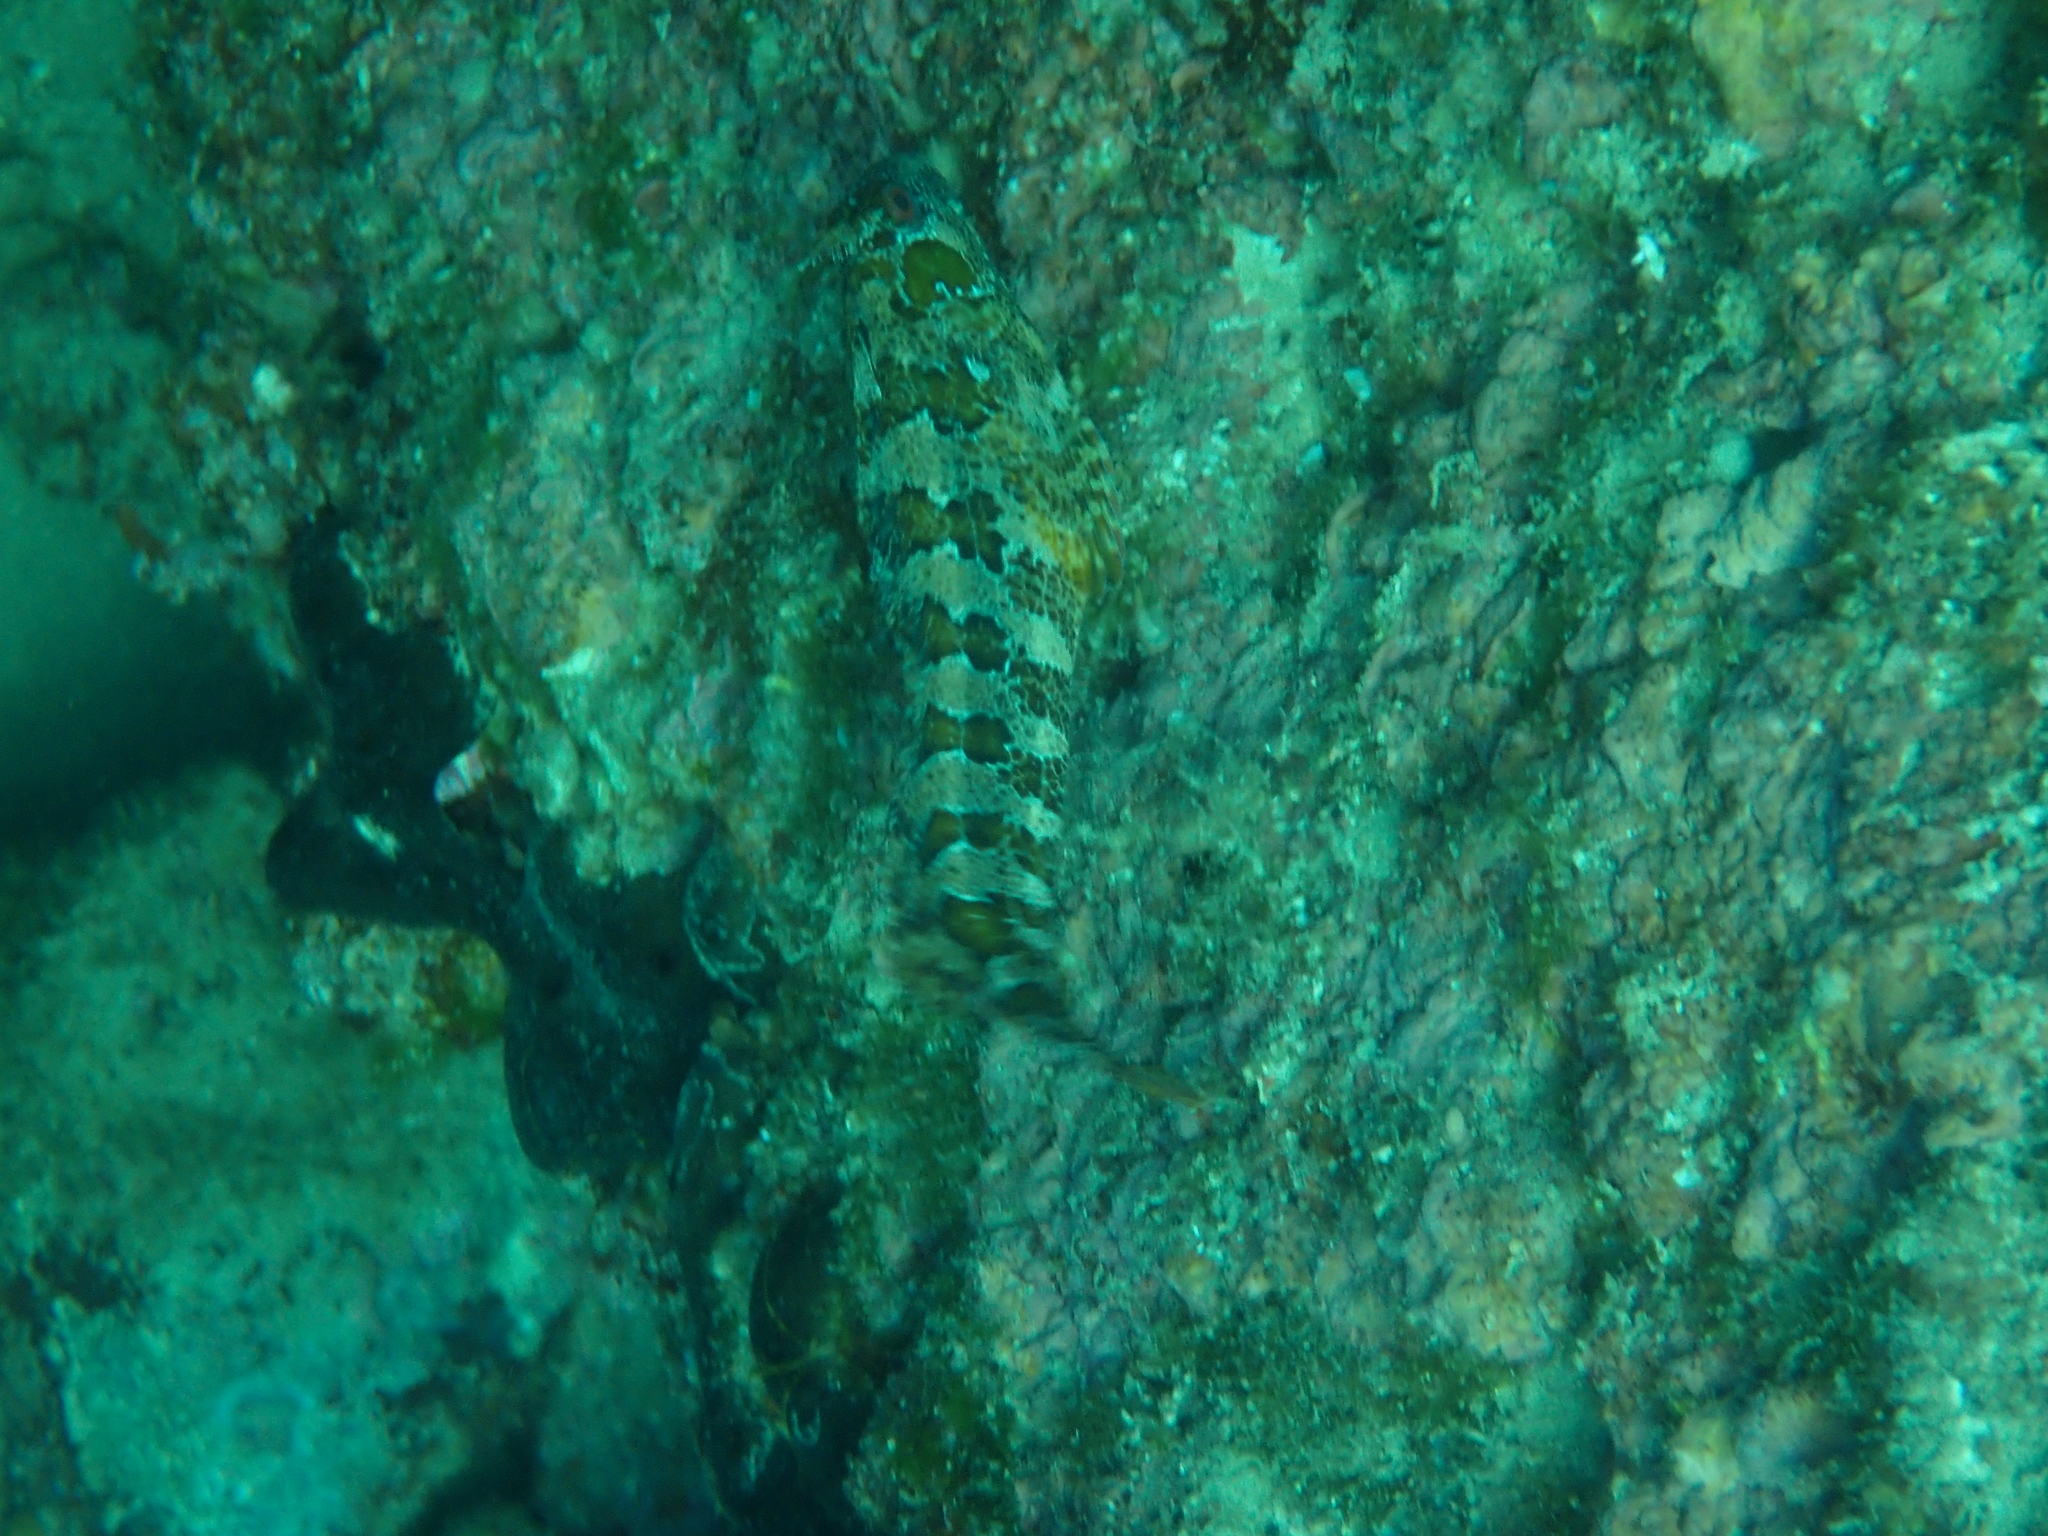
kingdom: Animalia
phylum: Chordata
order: Perciformes
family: Blenniidae
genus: Parablennius
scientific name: Parablennius gattorugine
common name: Tompot blenny
